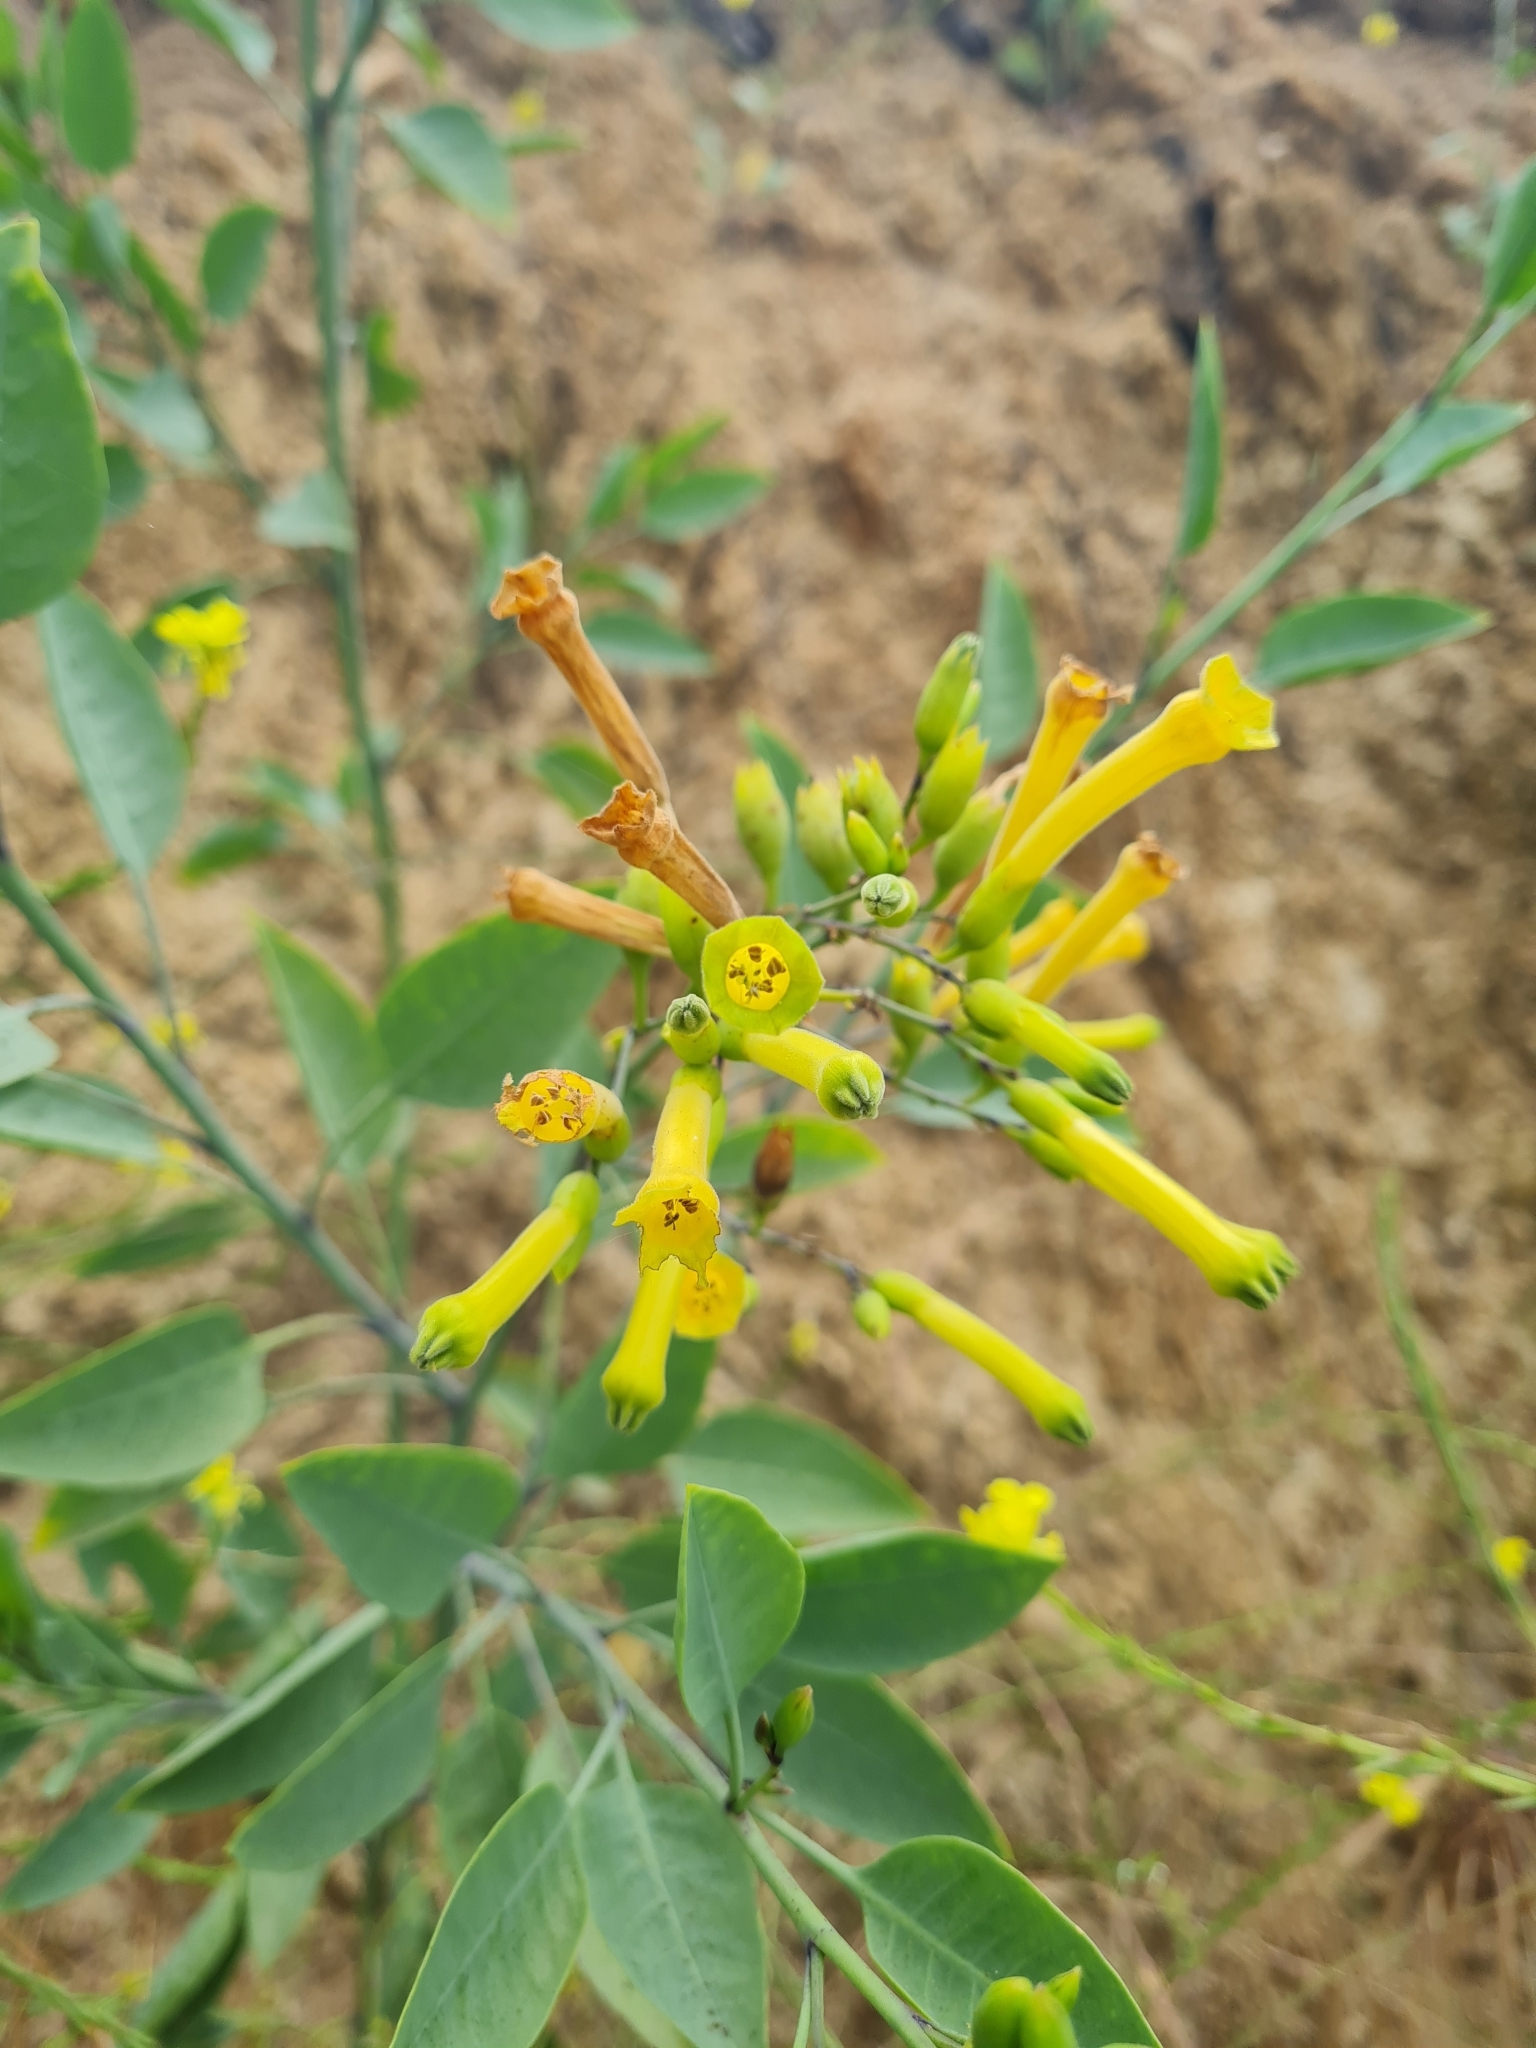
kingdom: Plantae
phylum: Tracheophyta
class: Magnoliopsida
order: Solanales
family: Solanaceae
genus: Nicotiana
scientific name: Nicotiana glauca
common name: Tree tobacco
